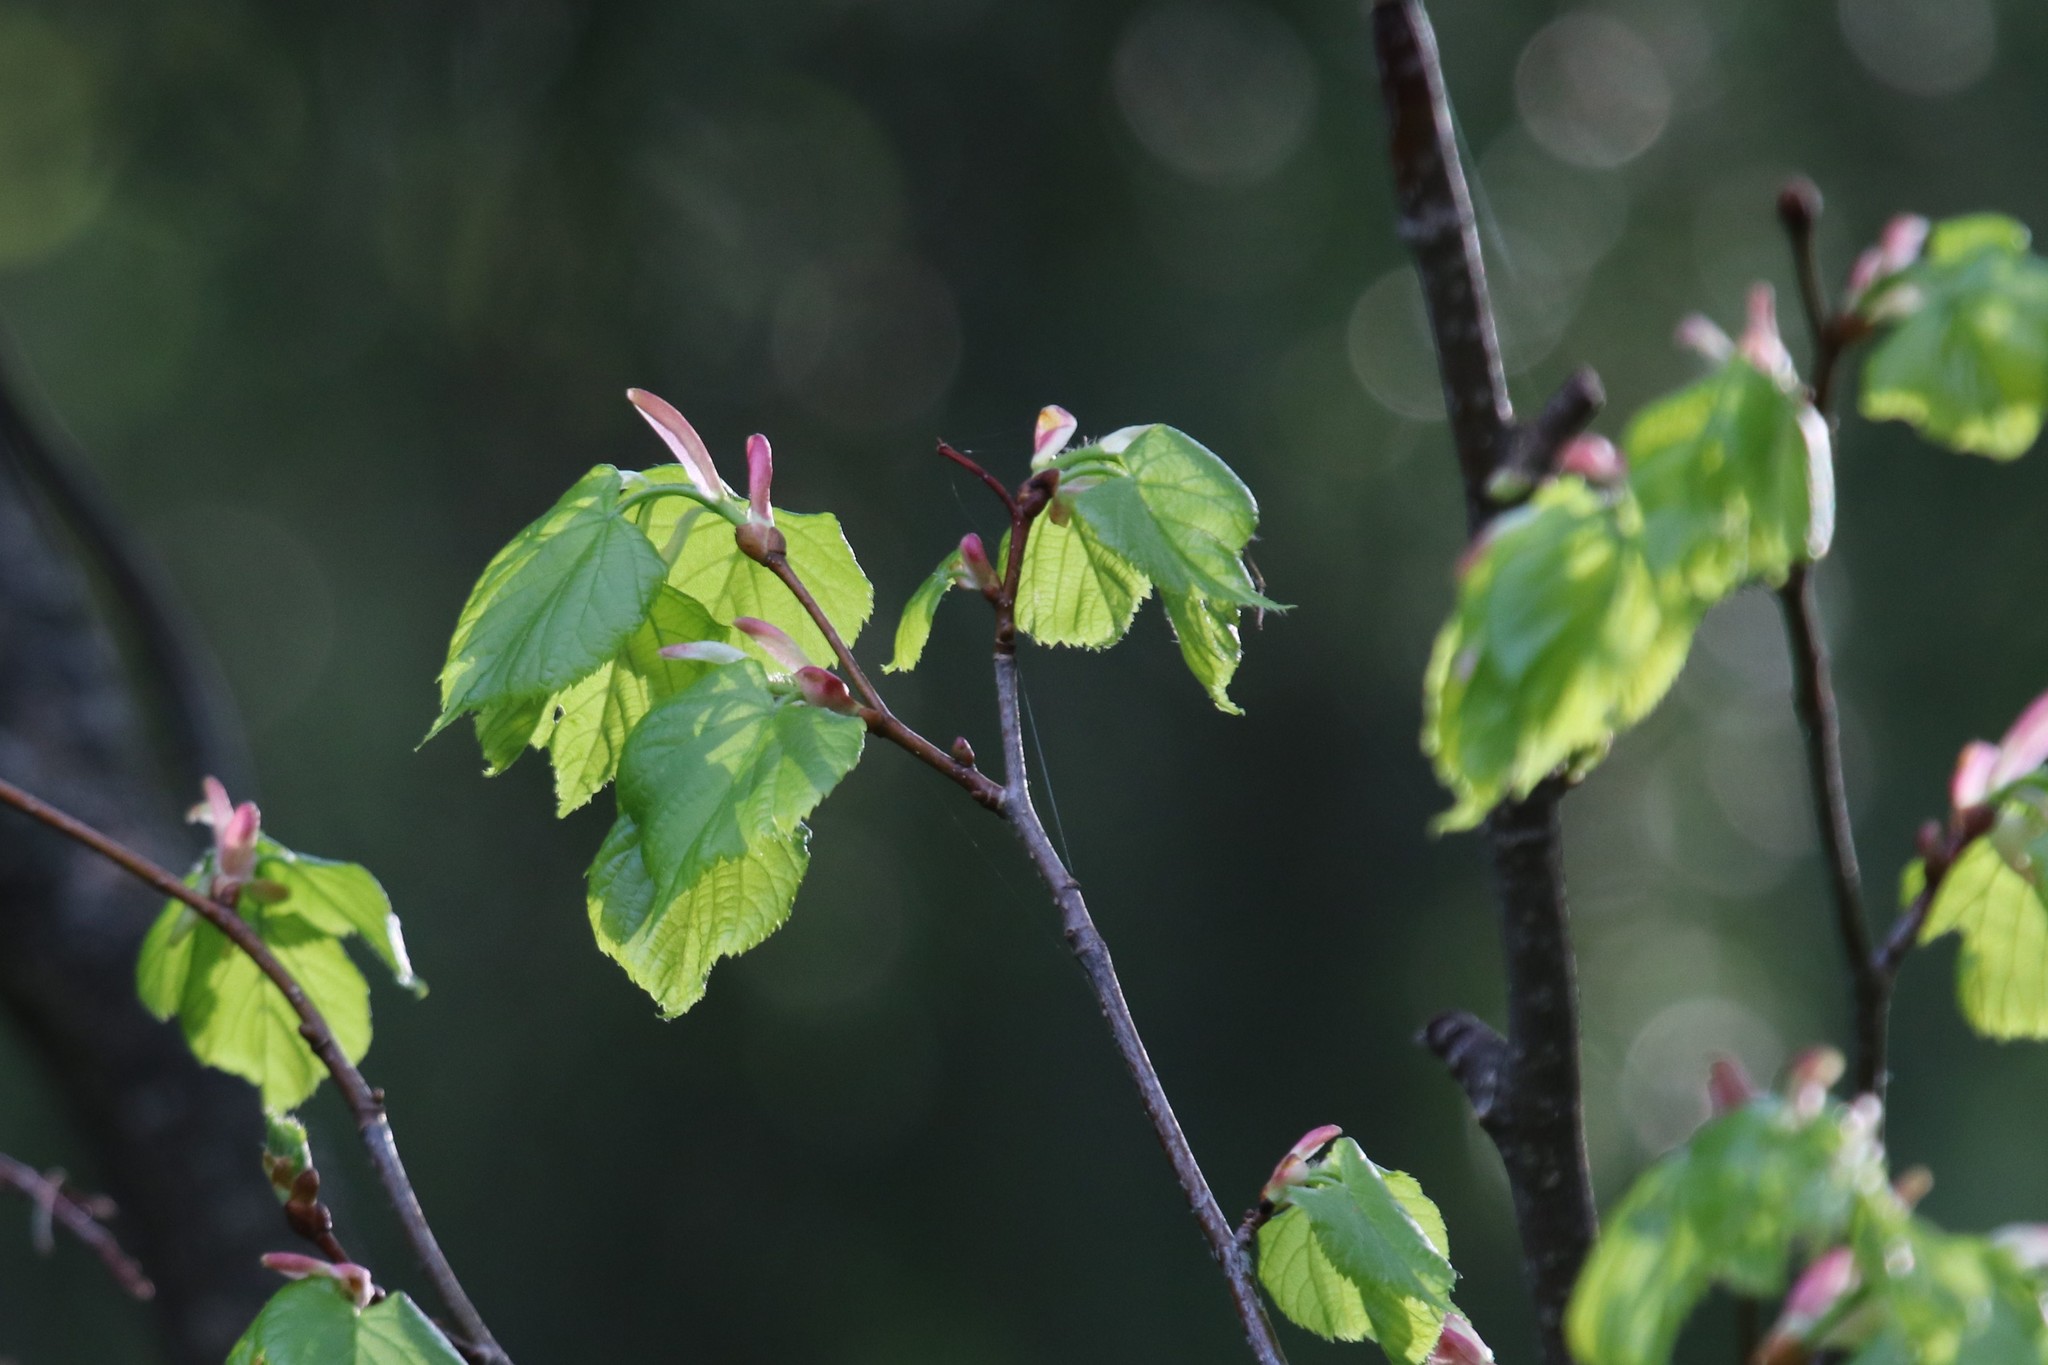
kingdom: Plantae
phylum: Tracheophyta
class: Magnoliopsida
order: Malvales
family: Malvaceae
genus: Tilia
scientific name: Tilia cordata
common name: Small-leaved lime
